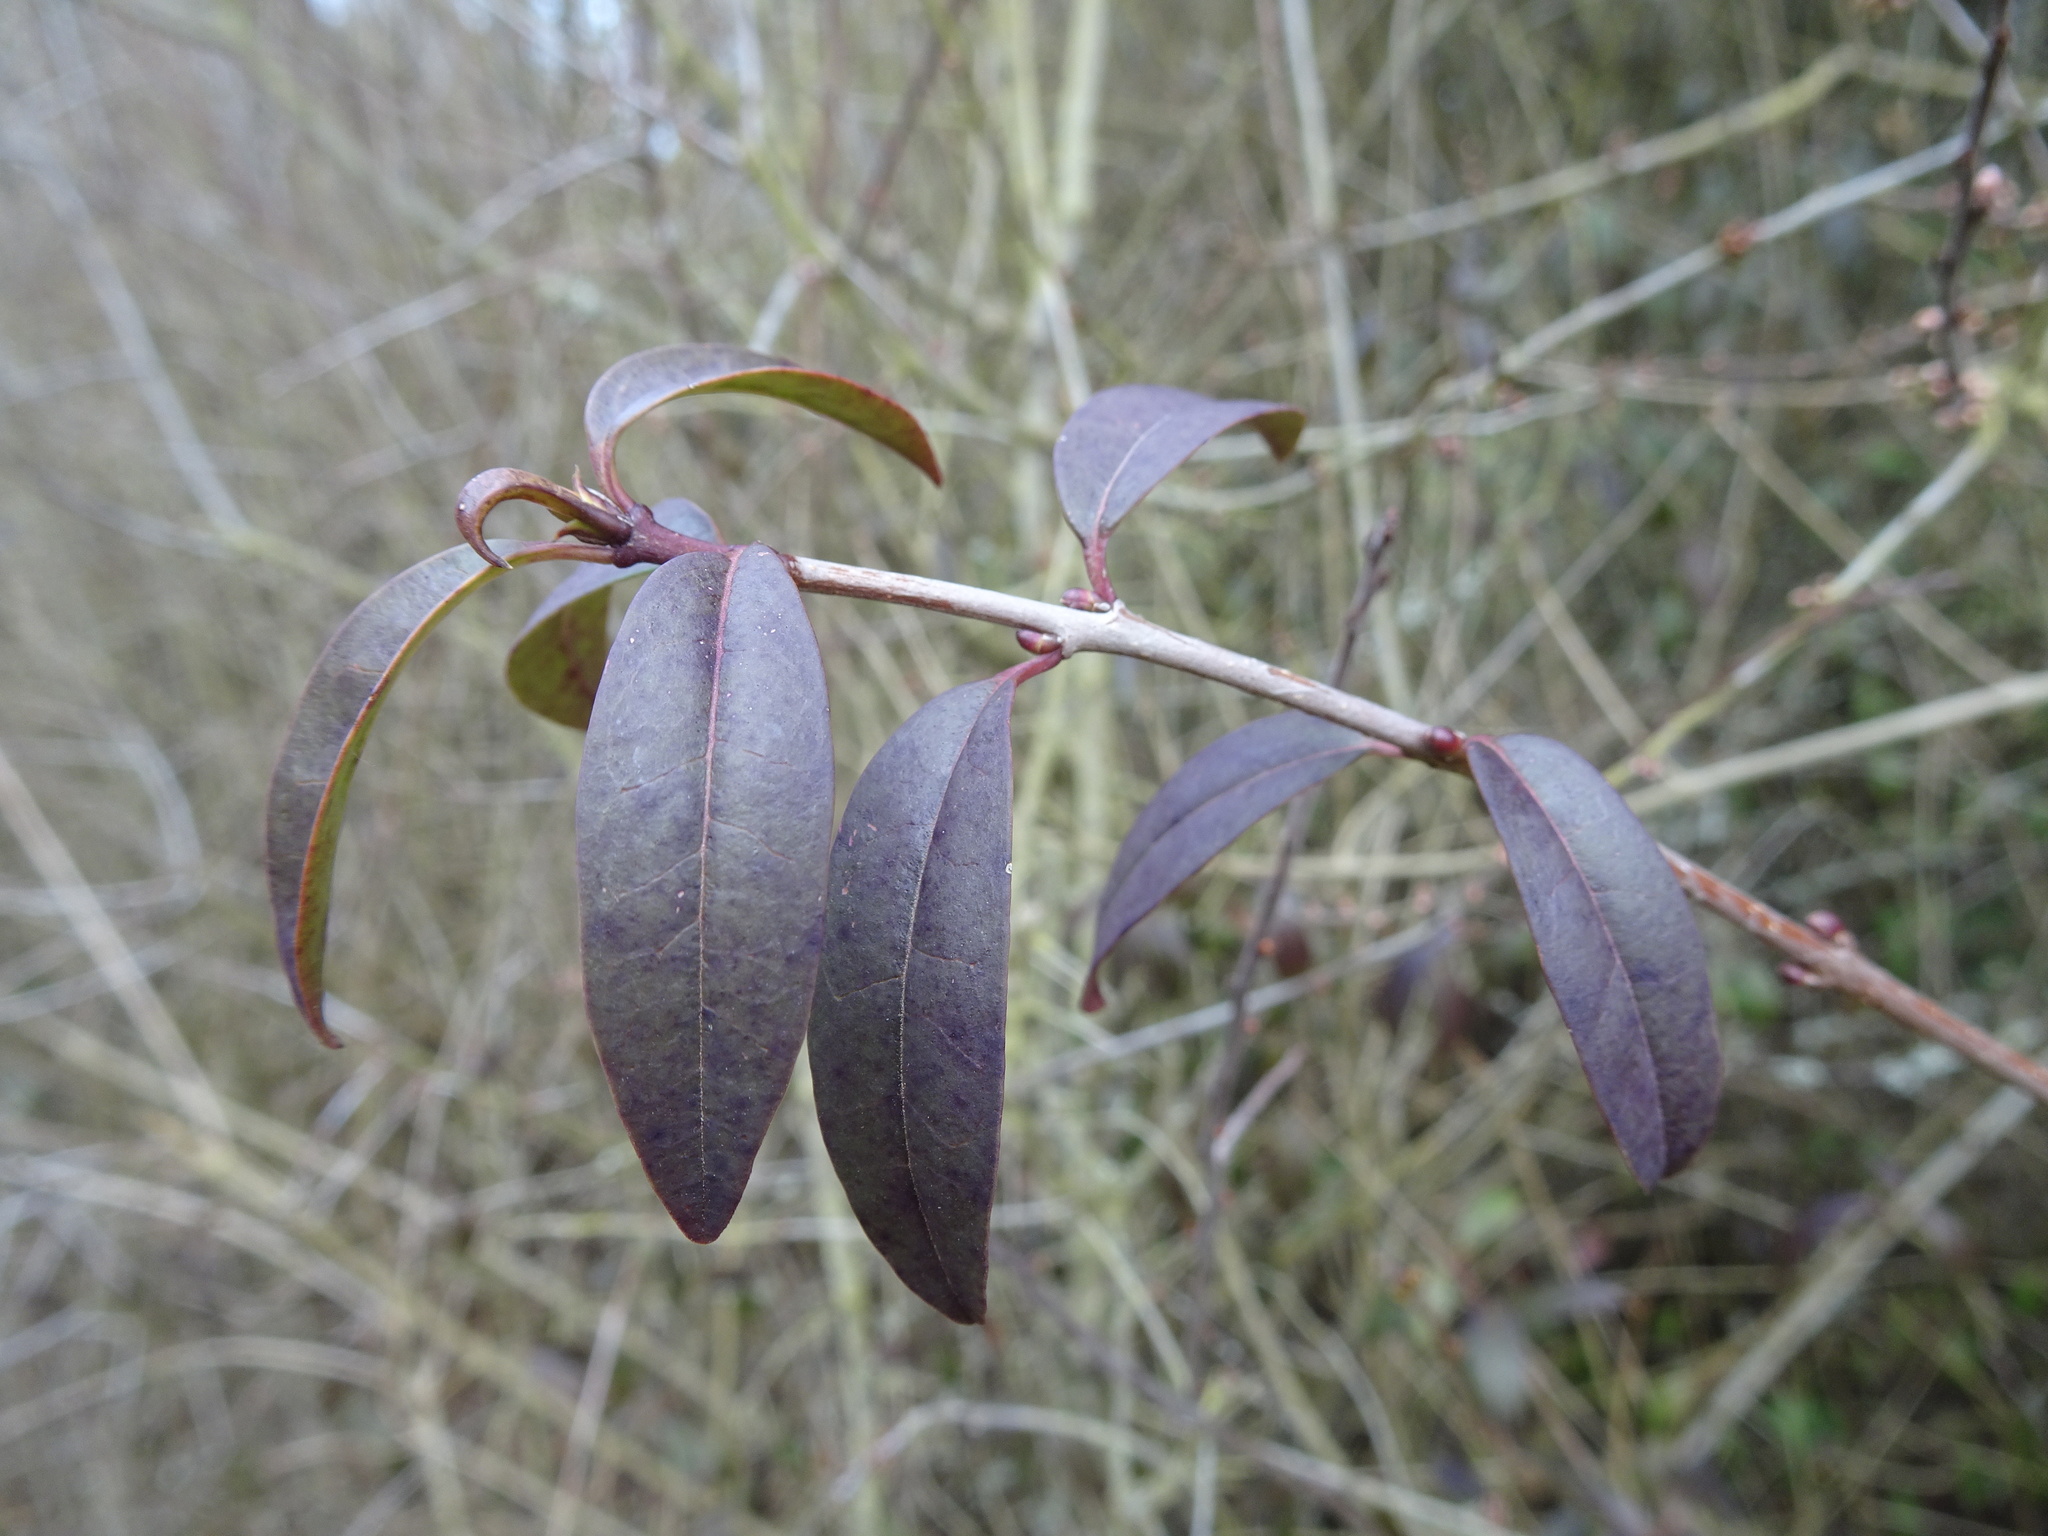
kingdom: Plantae
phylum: Tracheophyta
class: Magnoliopsida
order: Lamiales
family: Oleaceae
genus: Ligustrum
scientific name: Ligustrum vulgare
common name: Wild privet
